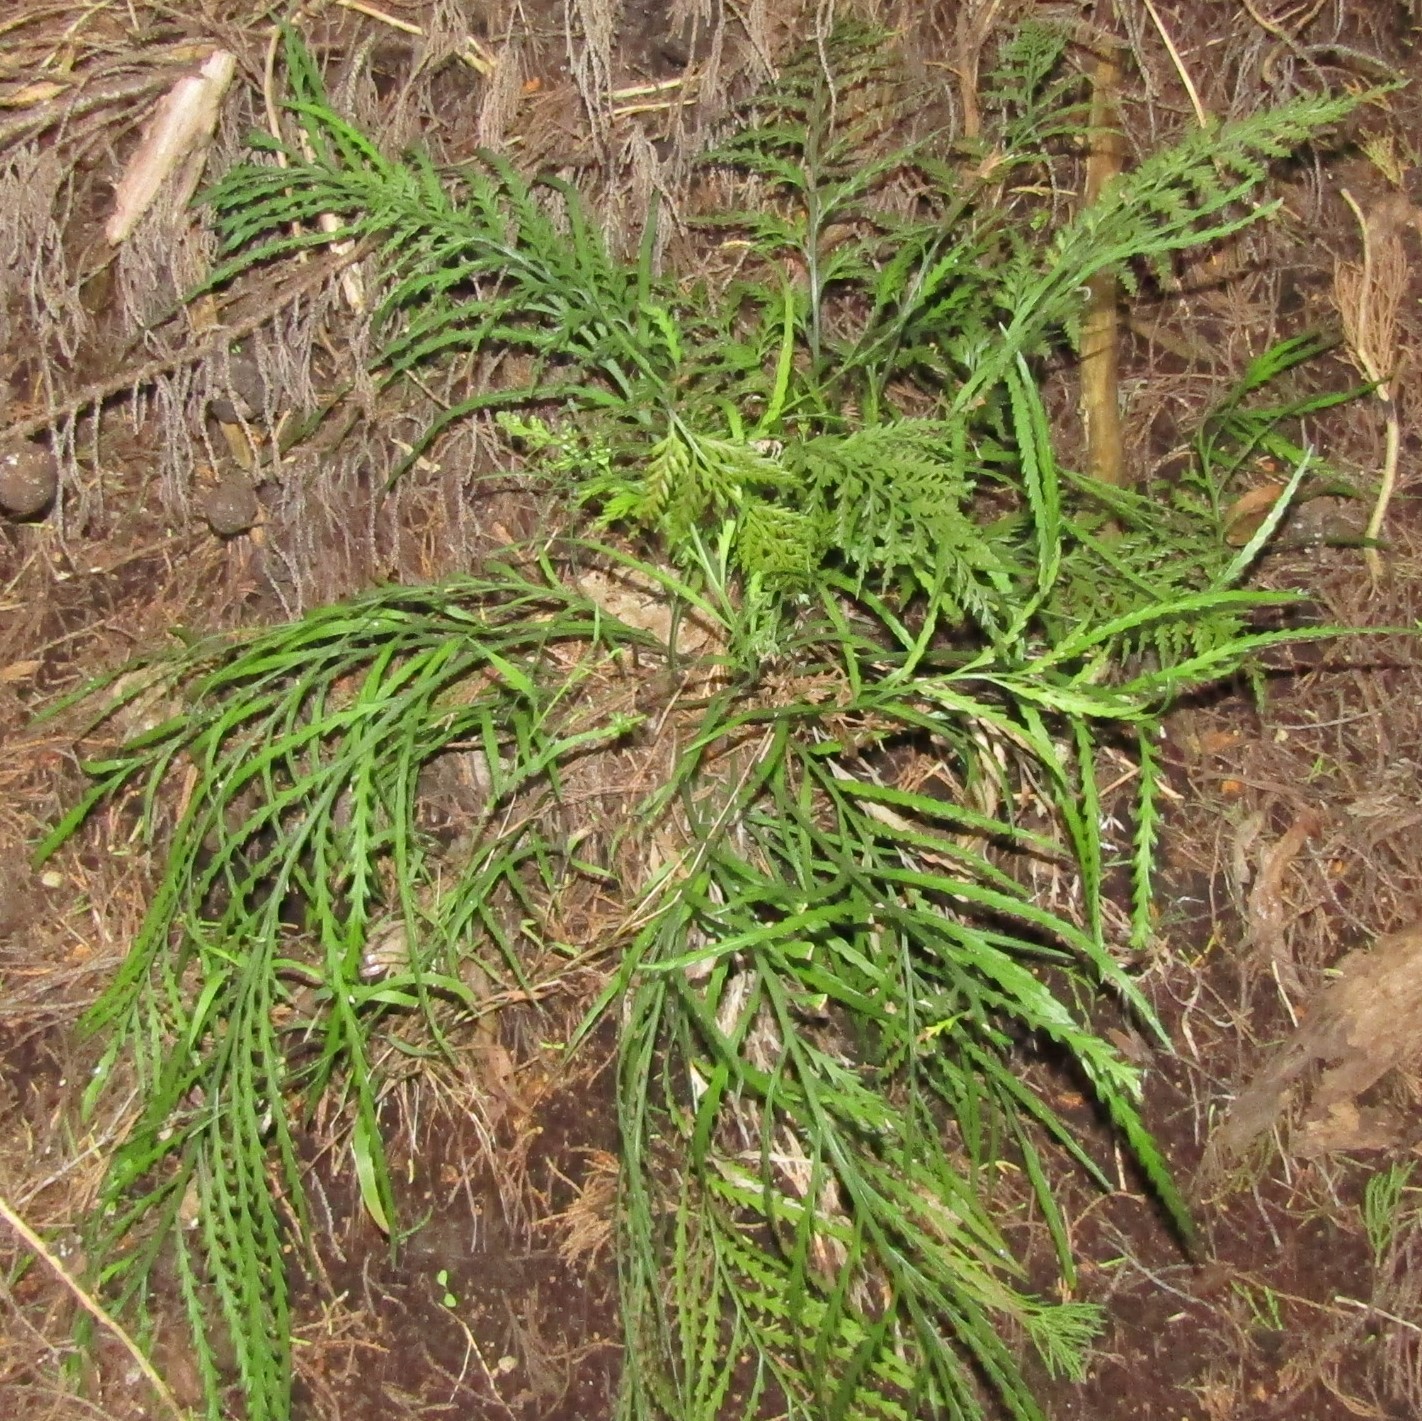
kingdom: Plantae
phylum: Tracheophyta
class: Polypodiopsida
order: Polypodiales
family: Aspleniaceae
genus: Asplenium
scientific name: Asplenium flaccidum
